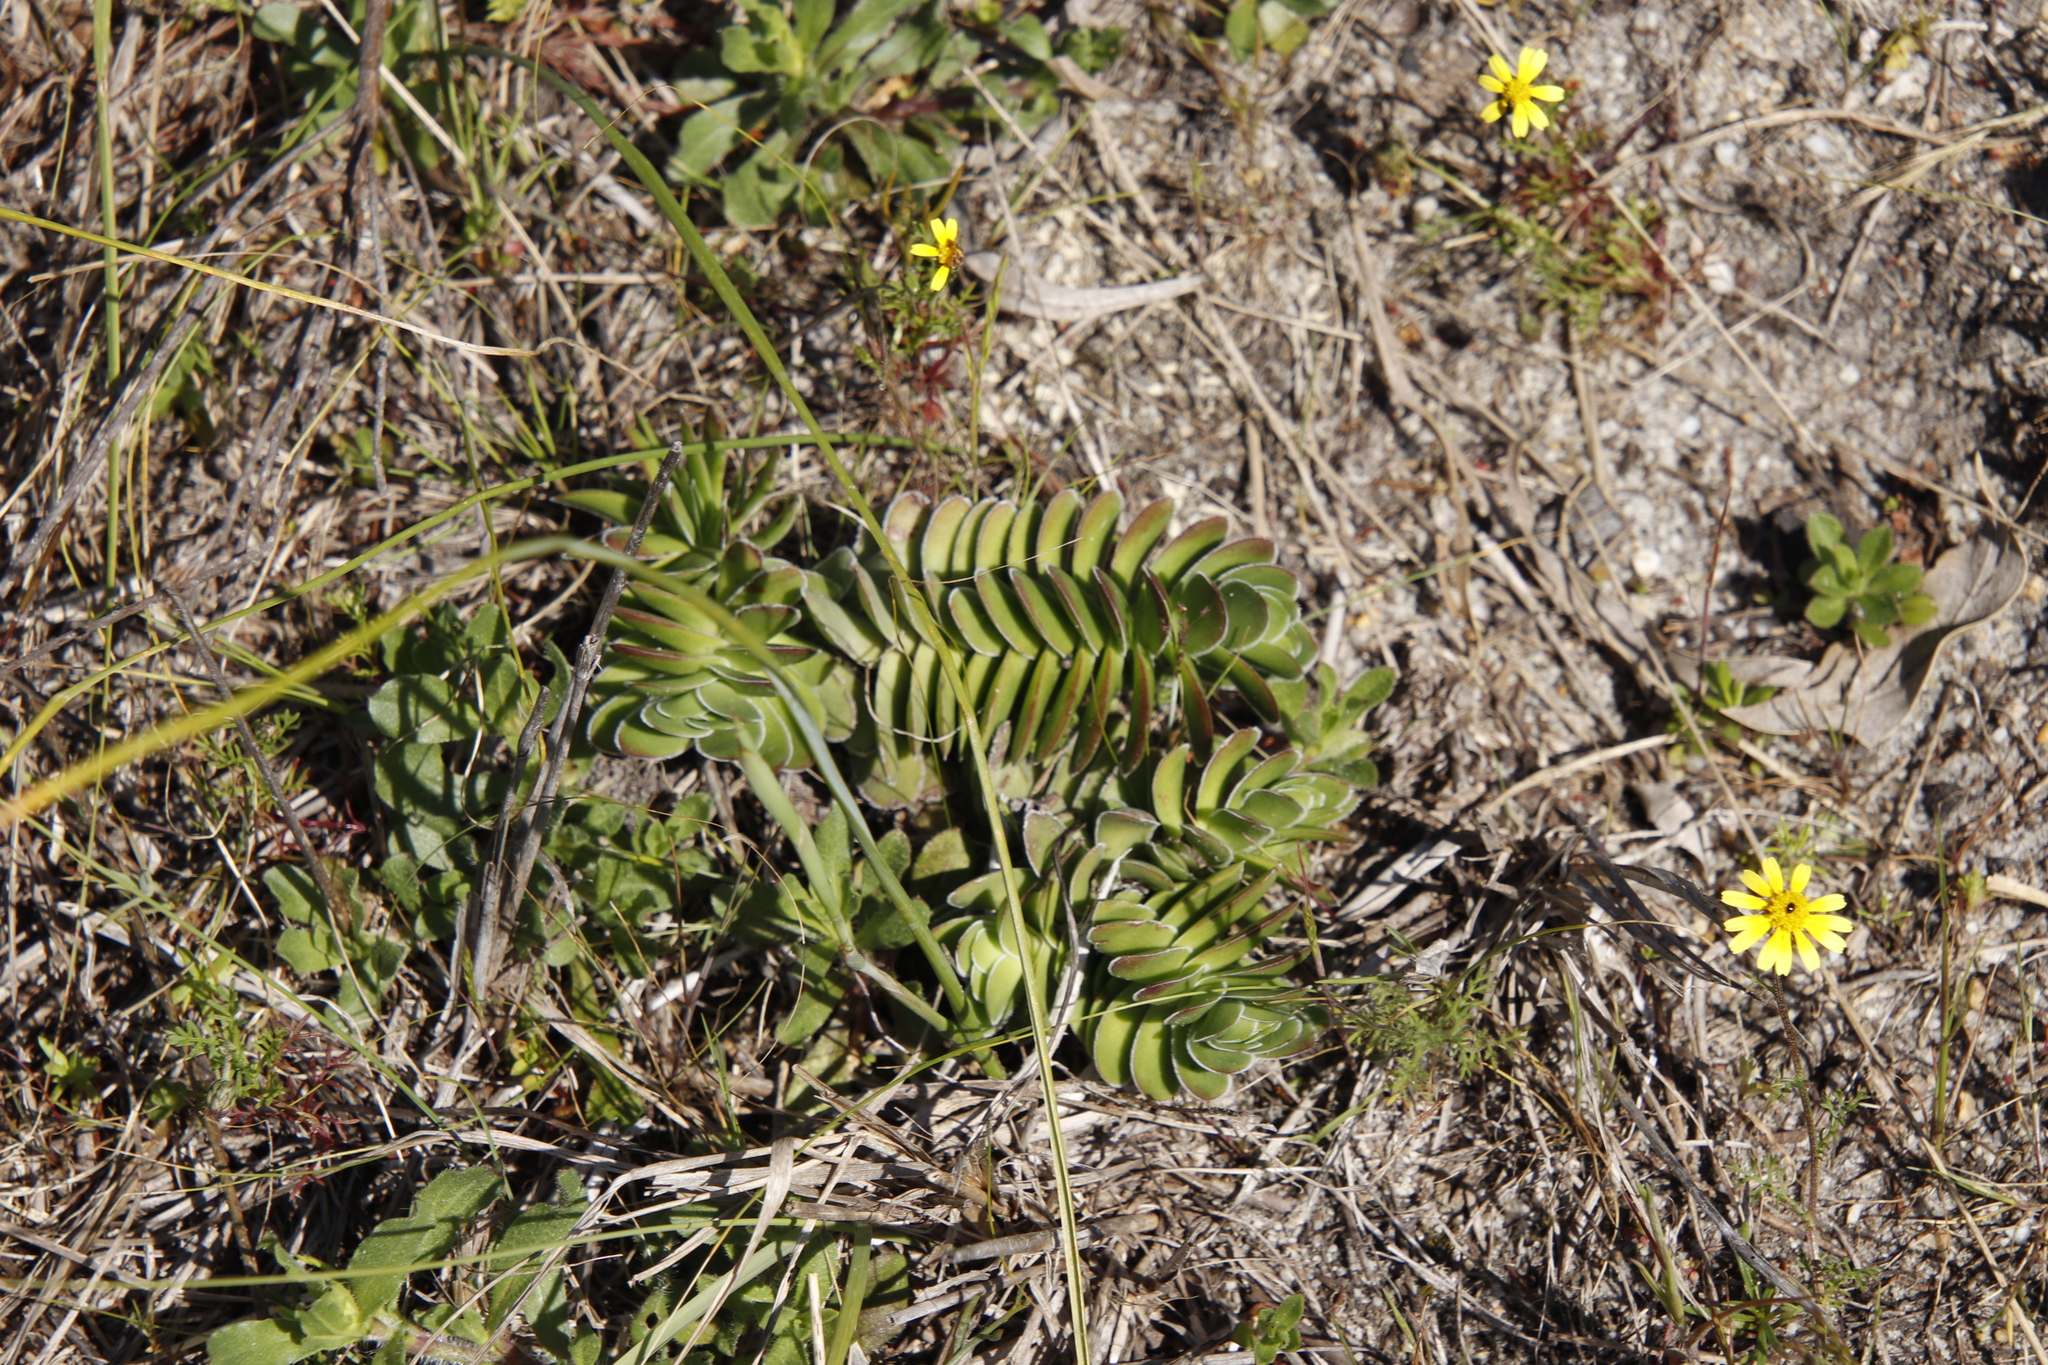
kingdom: Plantae
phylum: Tracheophyta
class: Magnoliopsida
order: Saxifragales
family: Crassulaceae
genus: Crassula
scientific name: Crassula ciliata
